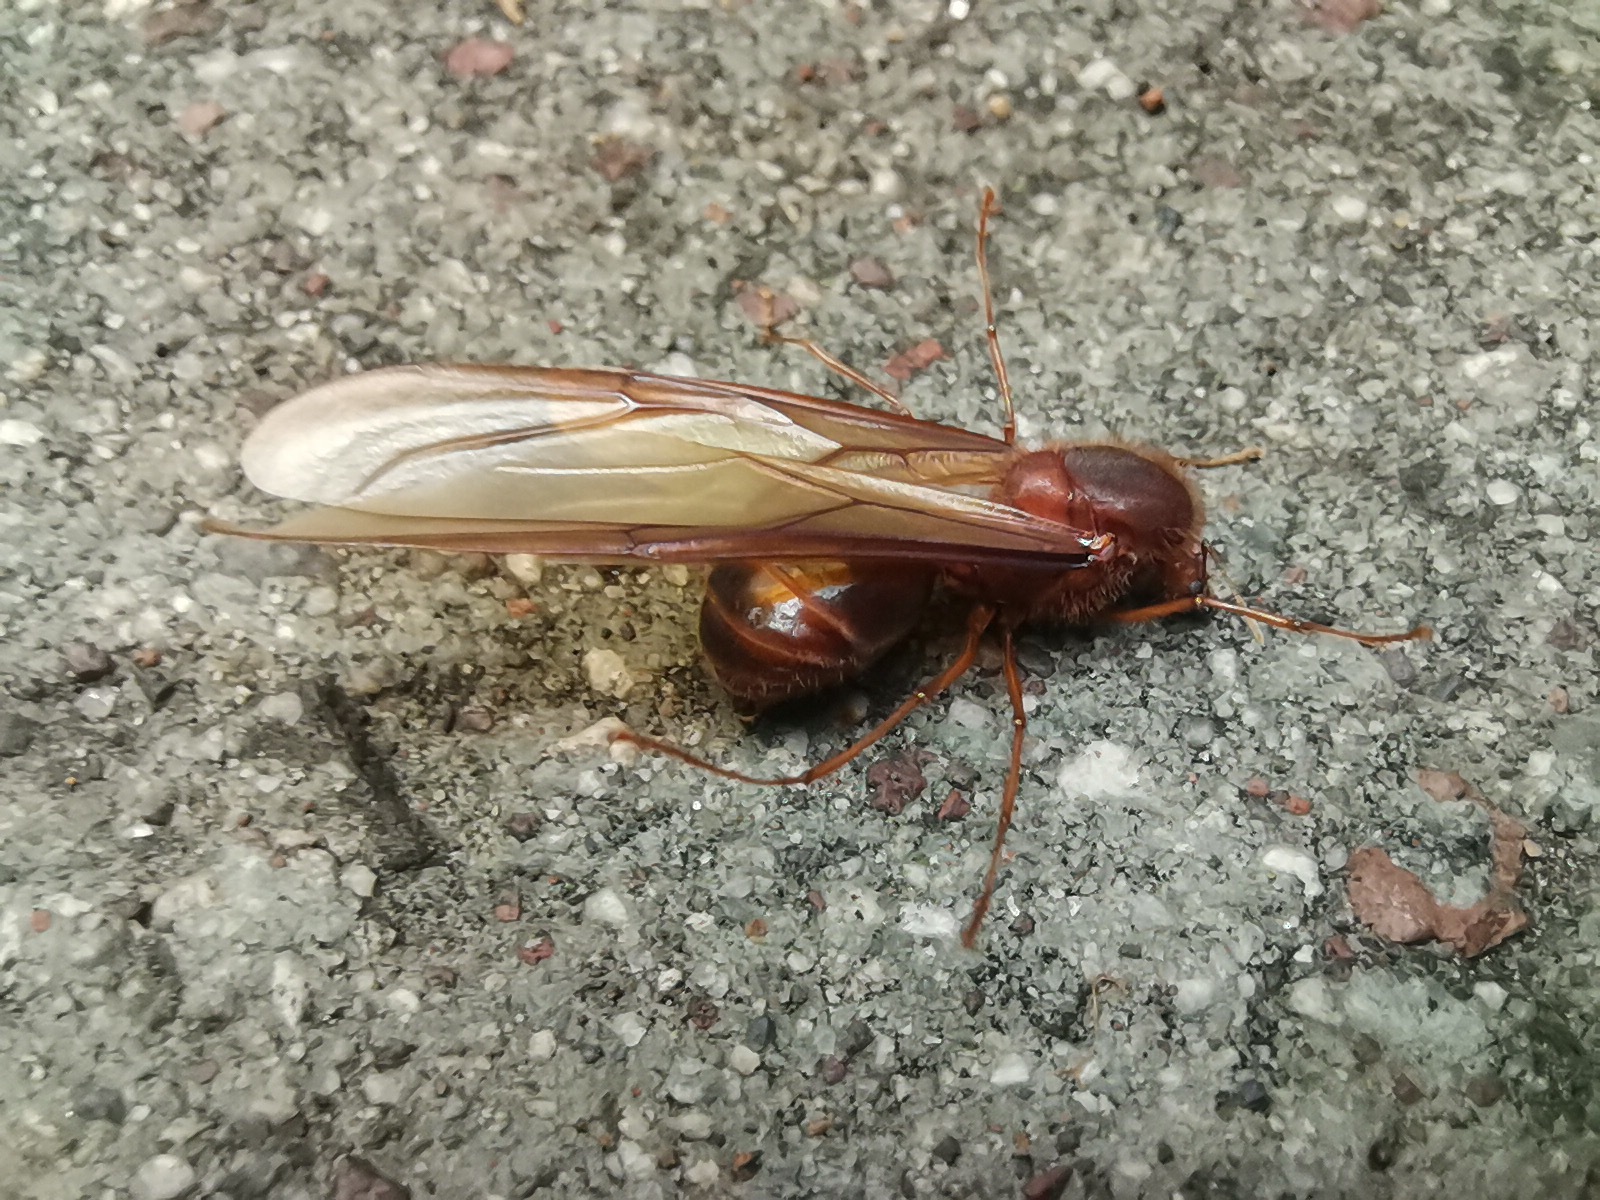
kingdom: Animalia
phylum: Arthropoda
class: Insecta
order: Hymenoptera
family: Formicidae
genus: Atta
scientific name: Atta mexicana
